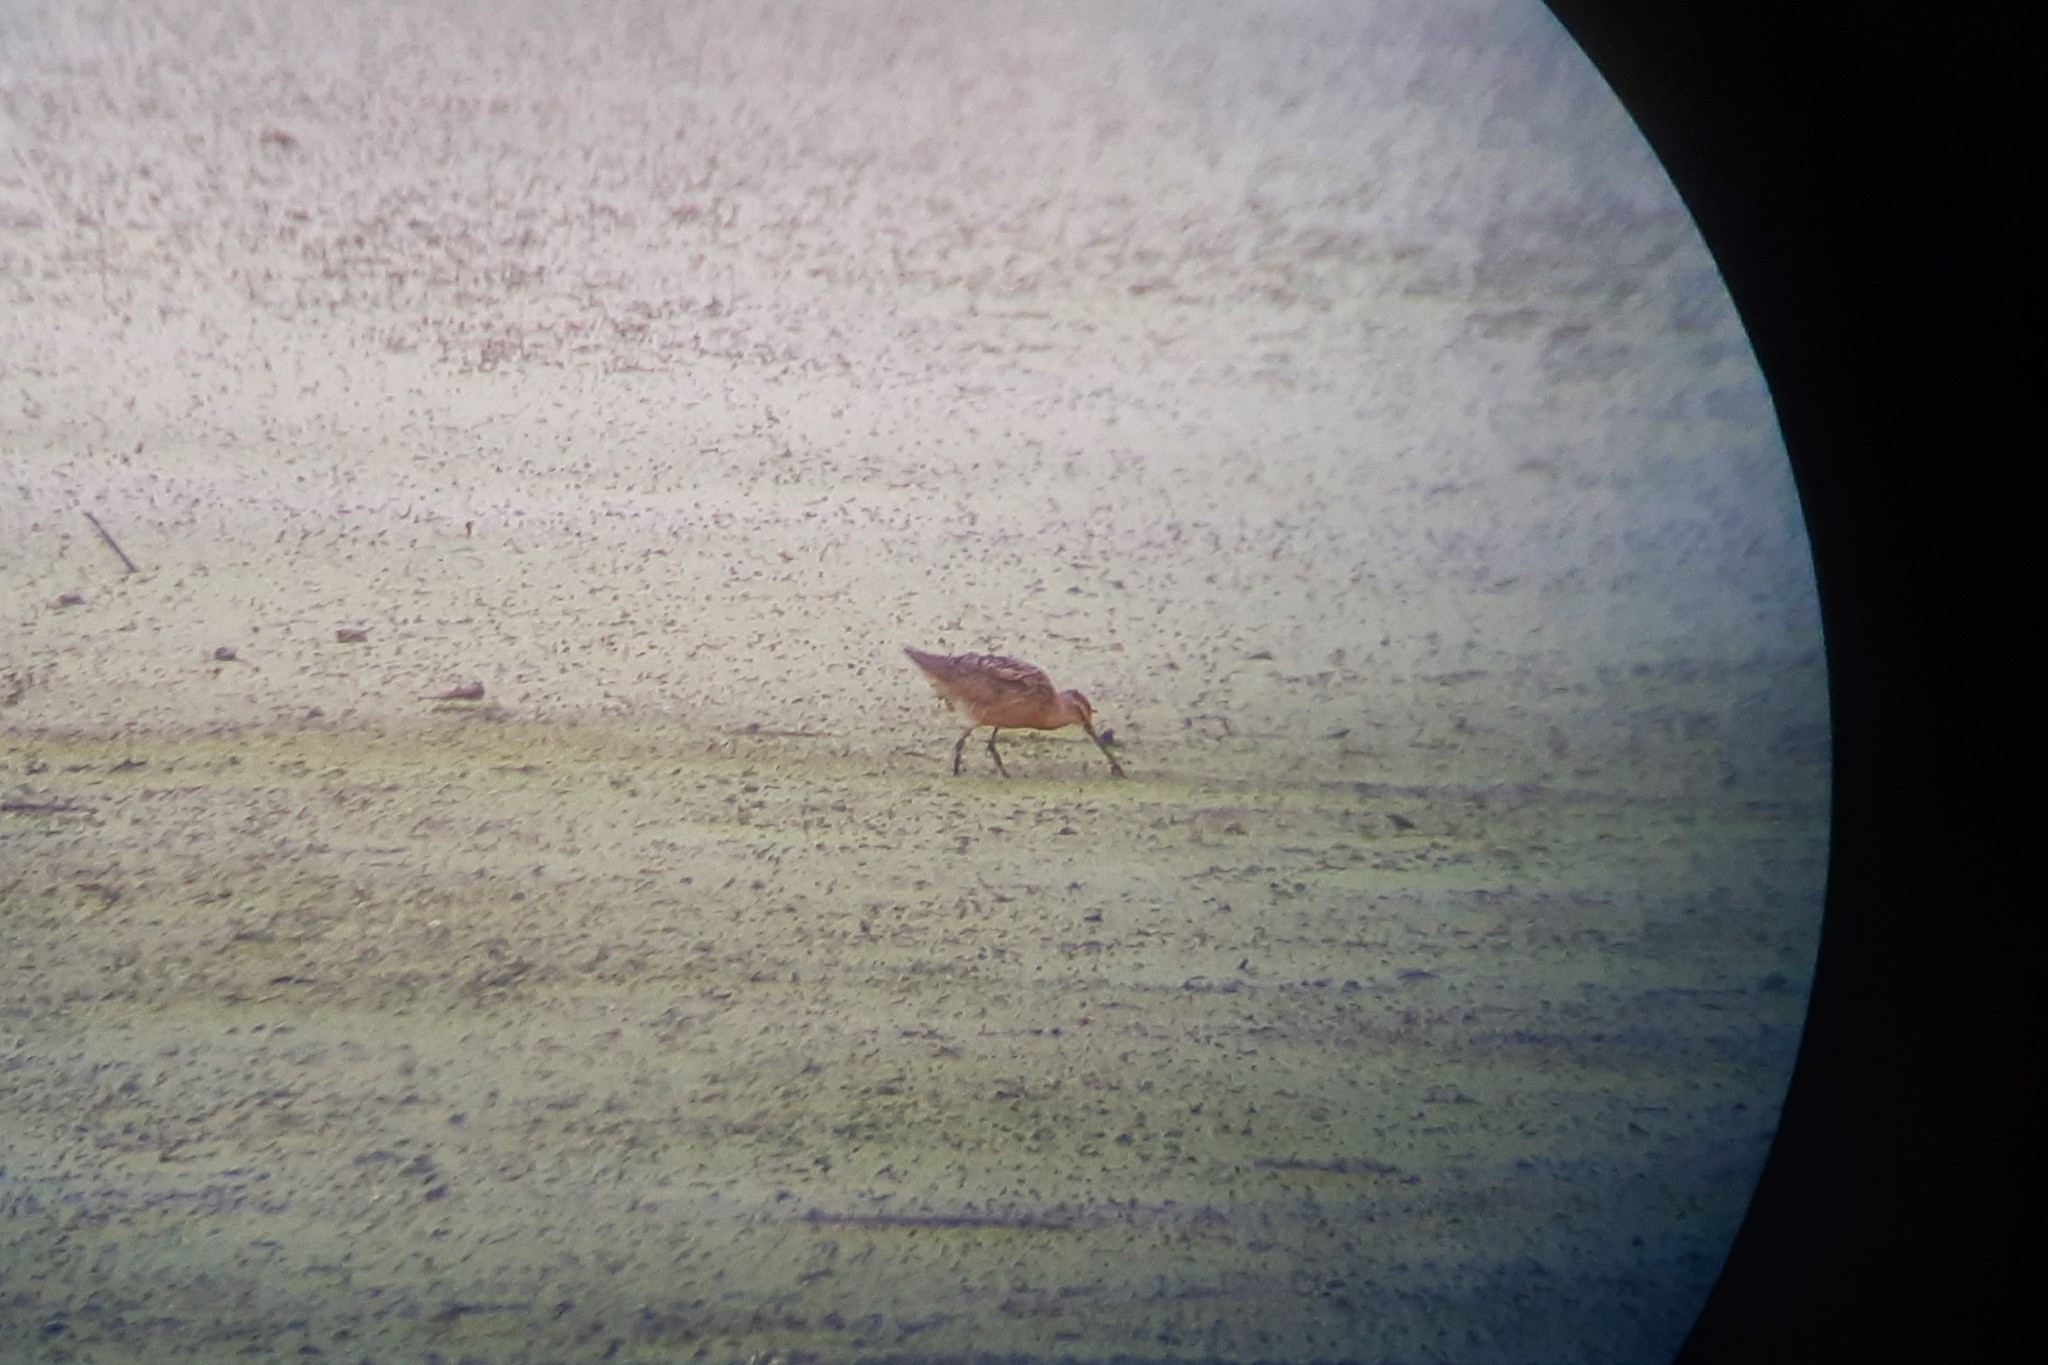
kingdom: Animalia
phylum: Chordata
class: Aves
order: Charadriiformes
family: Scolopacidae
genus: Limnodromus
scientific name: Limnodromus griseus
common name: Short-billed dowitcher
